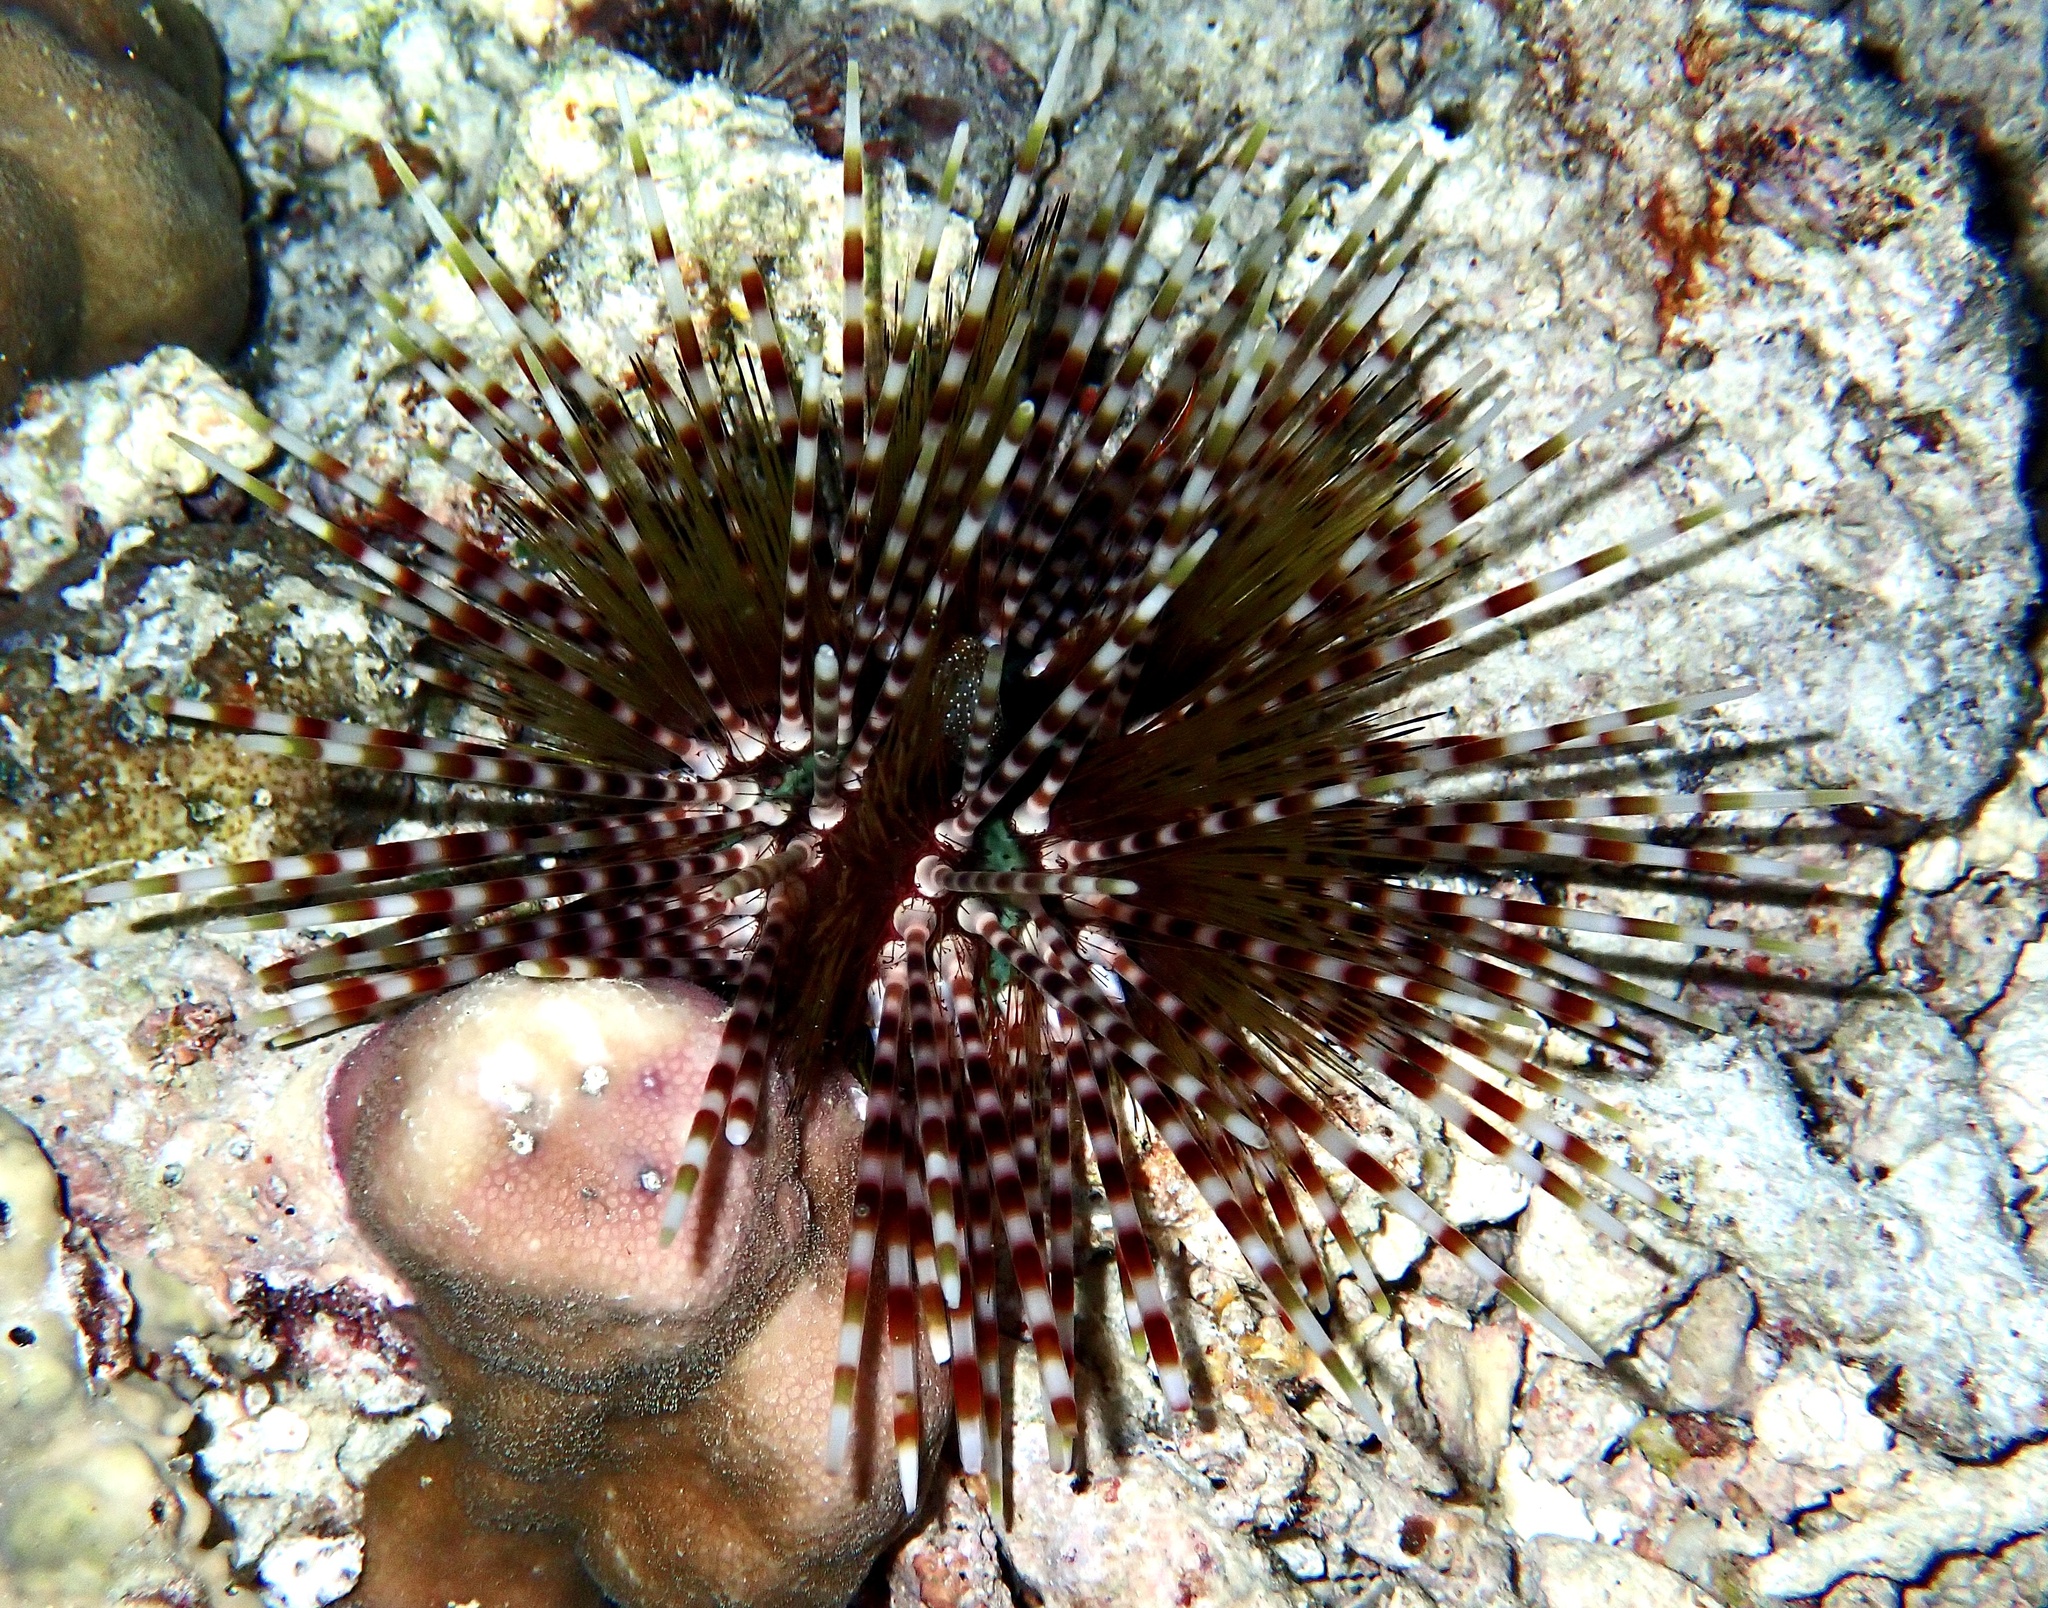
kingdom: Animalia
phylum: Echinodermata
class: Echinoidea
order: Diadematoida
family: Diadematidae
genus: Echinothrix
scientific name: Echinothrix calamaris
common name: Banded sea urchin
